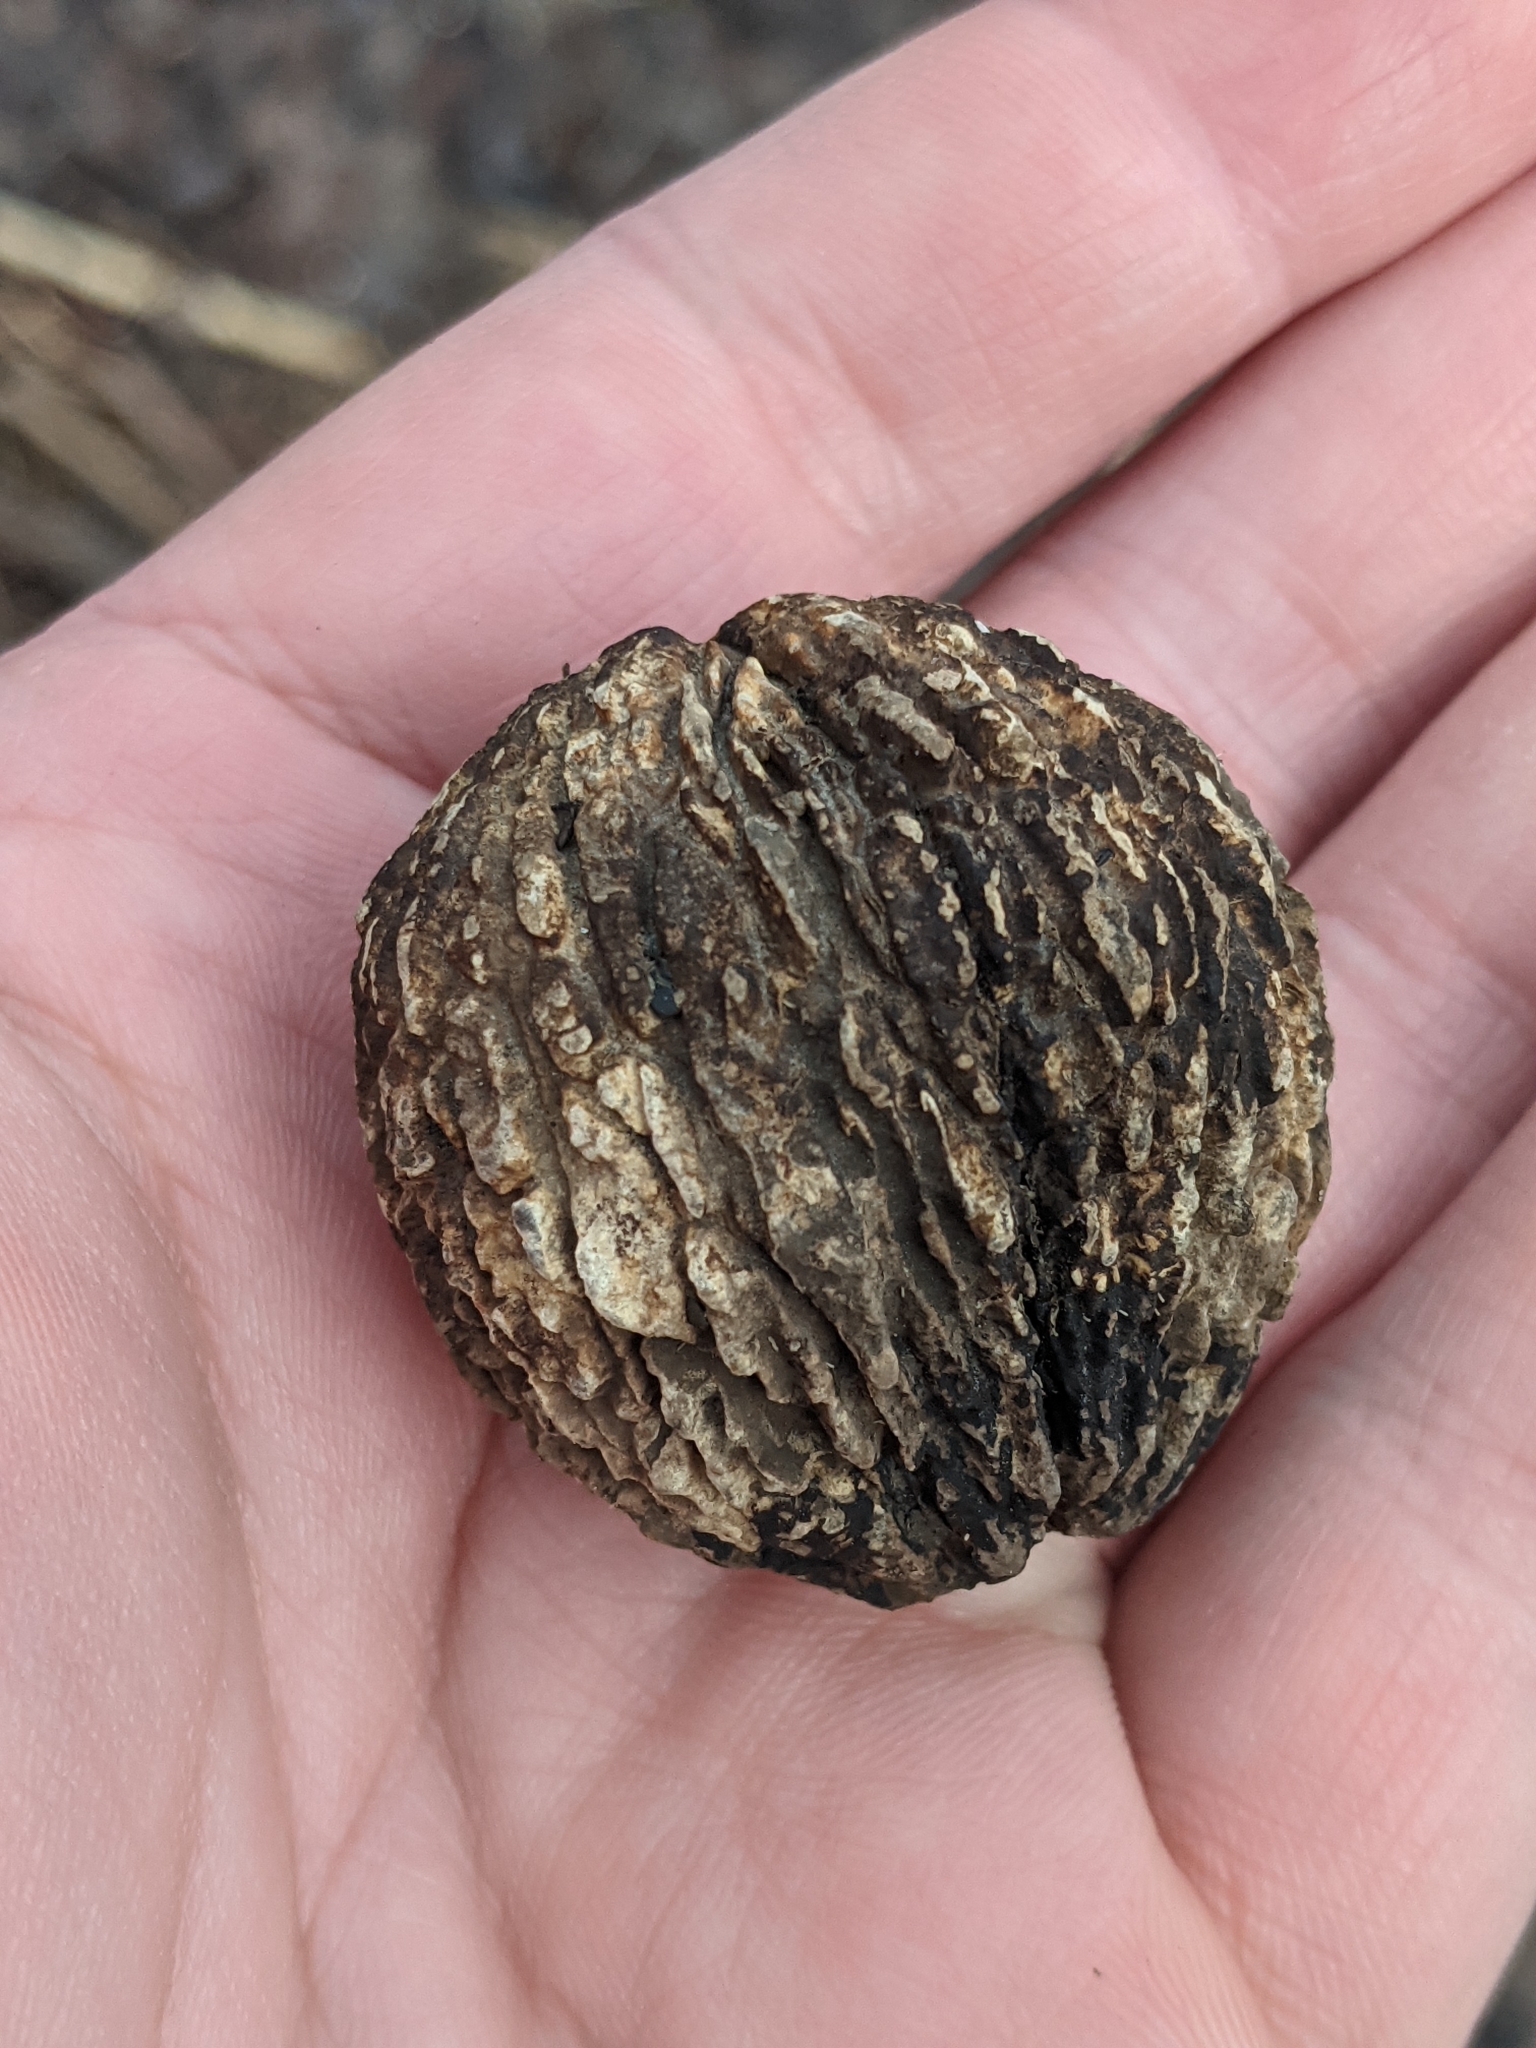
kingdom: Plantae
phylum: Tracheophyta
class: Magnoliopsida
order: Fagales
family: Juglandaceae
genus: Juglans
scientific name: Juglans
